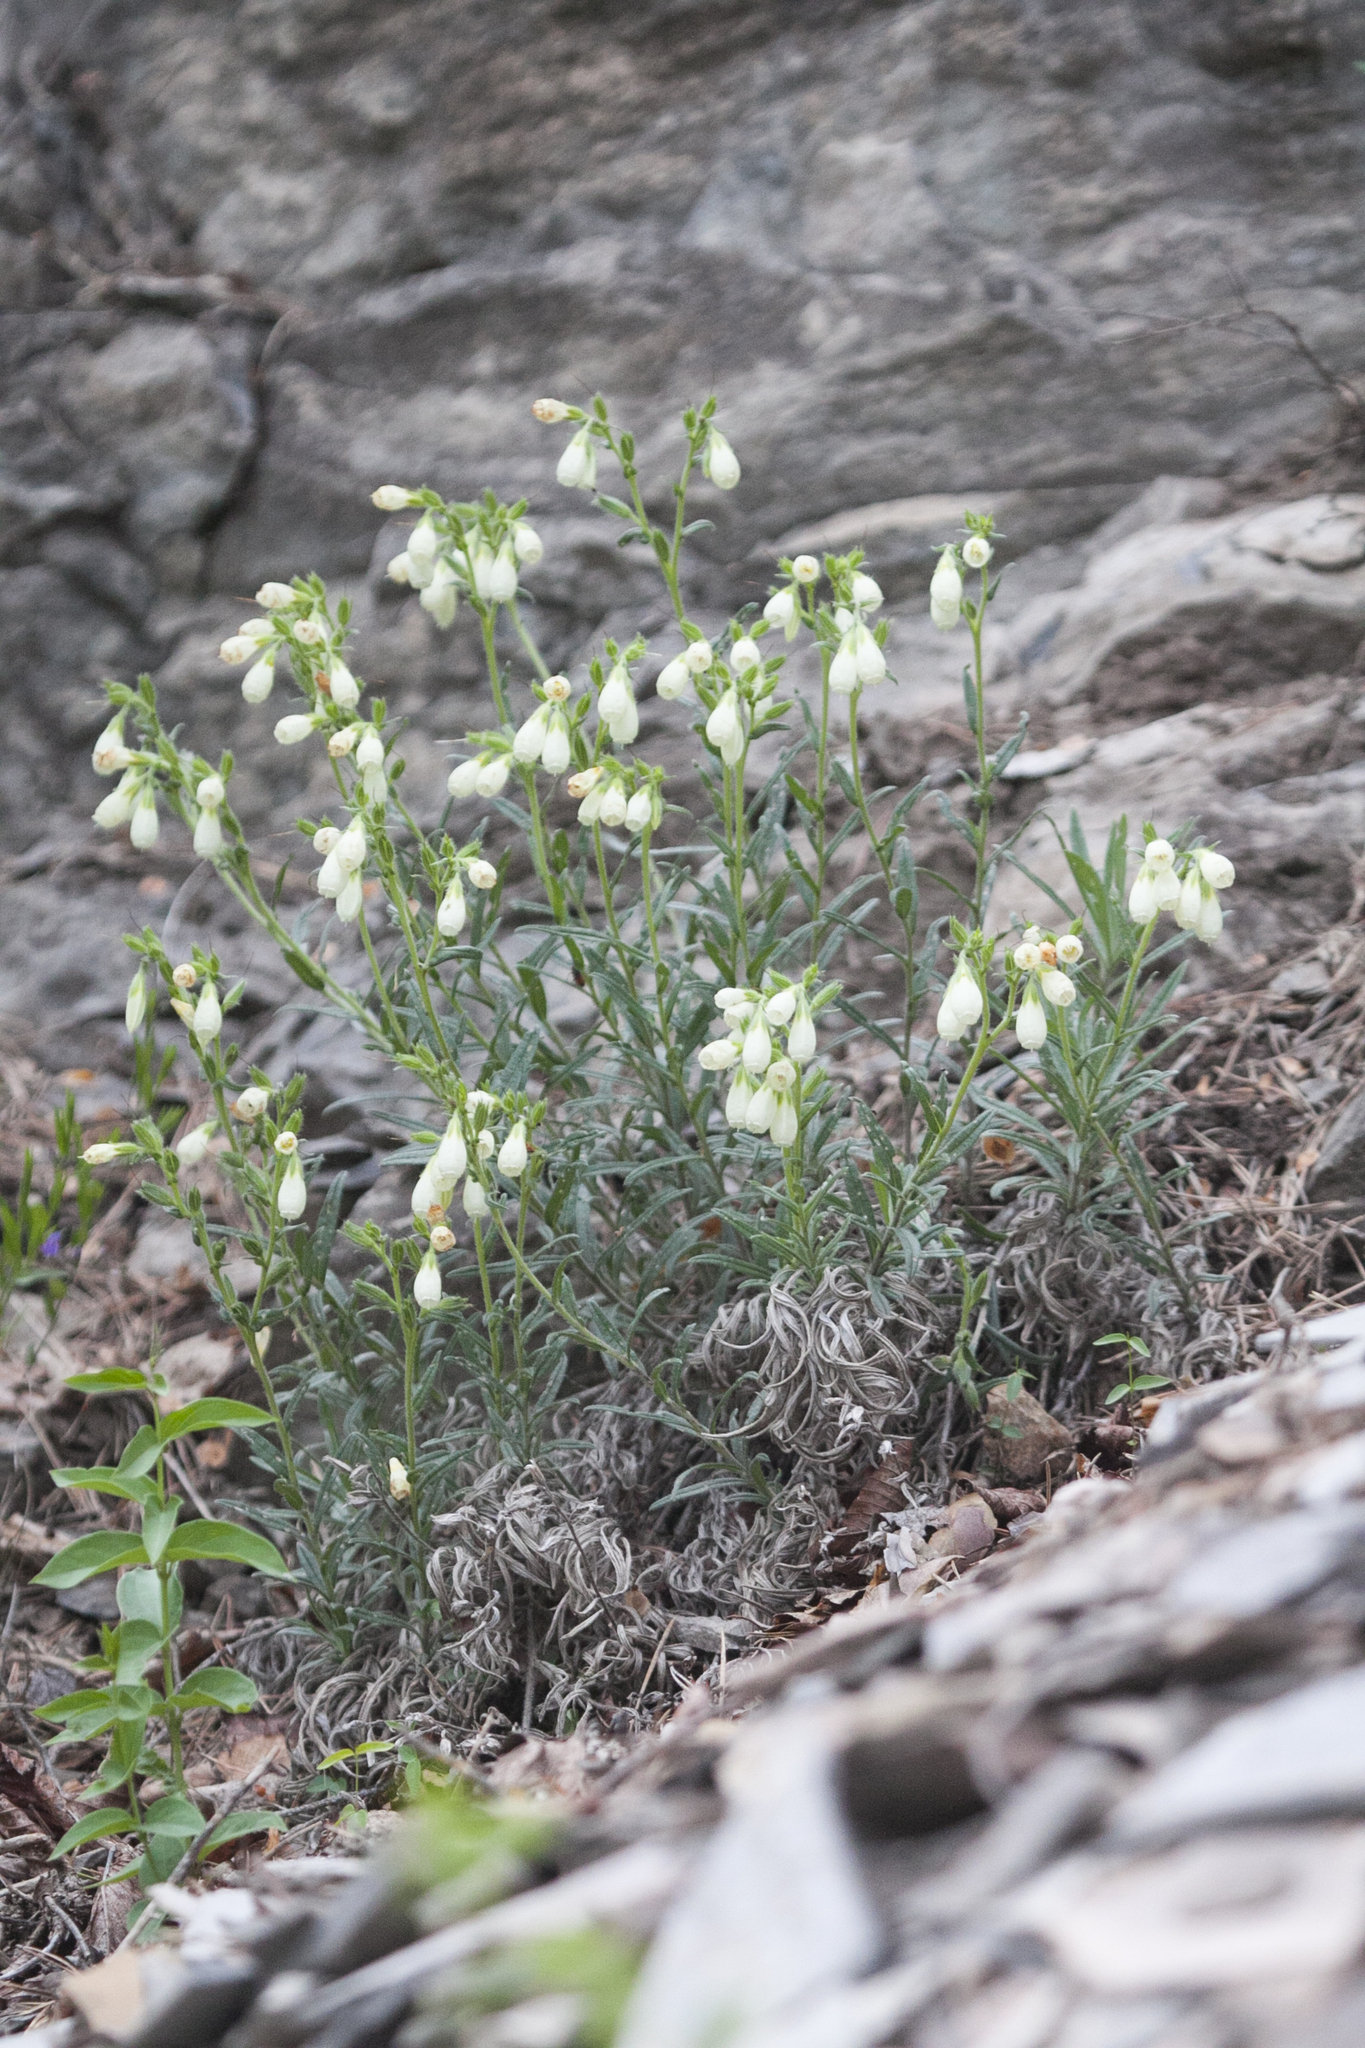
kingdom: Plantae
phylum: Tracheophyta
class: Magnoliopsida
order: Boraginales
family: Boraginaceae
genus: Onosma
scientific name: Onosma simplicissima
